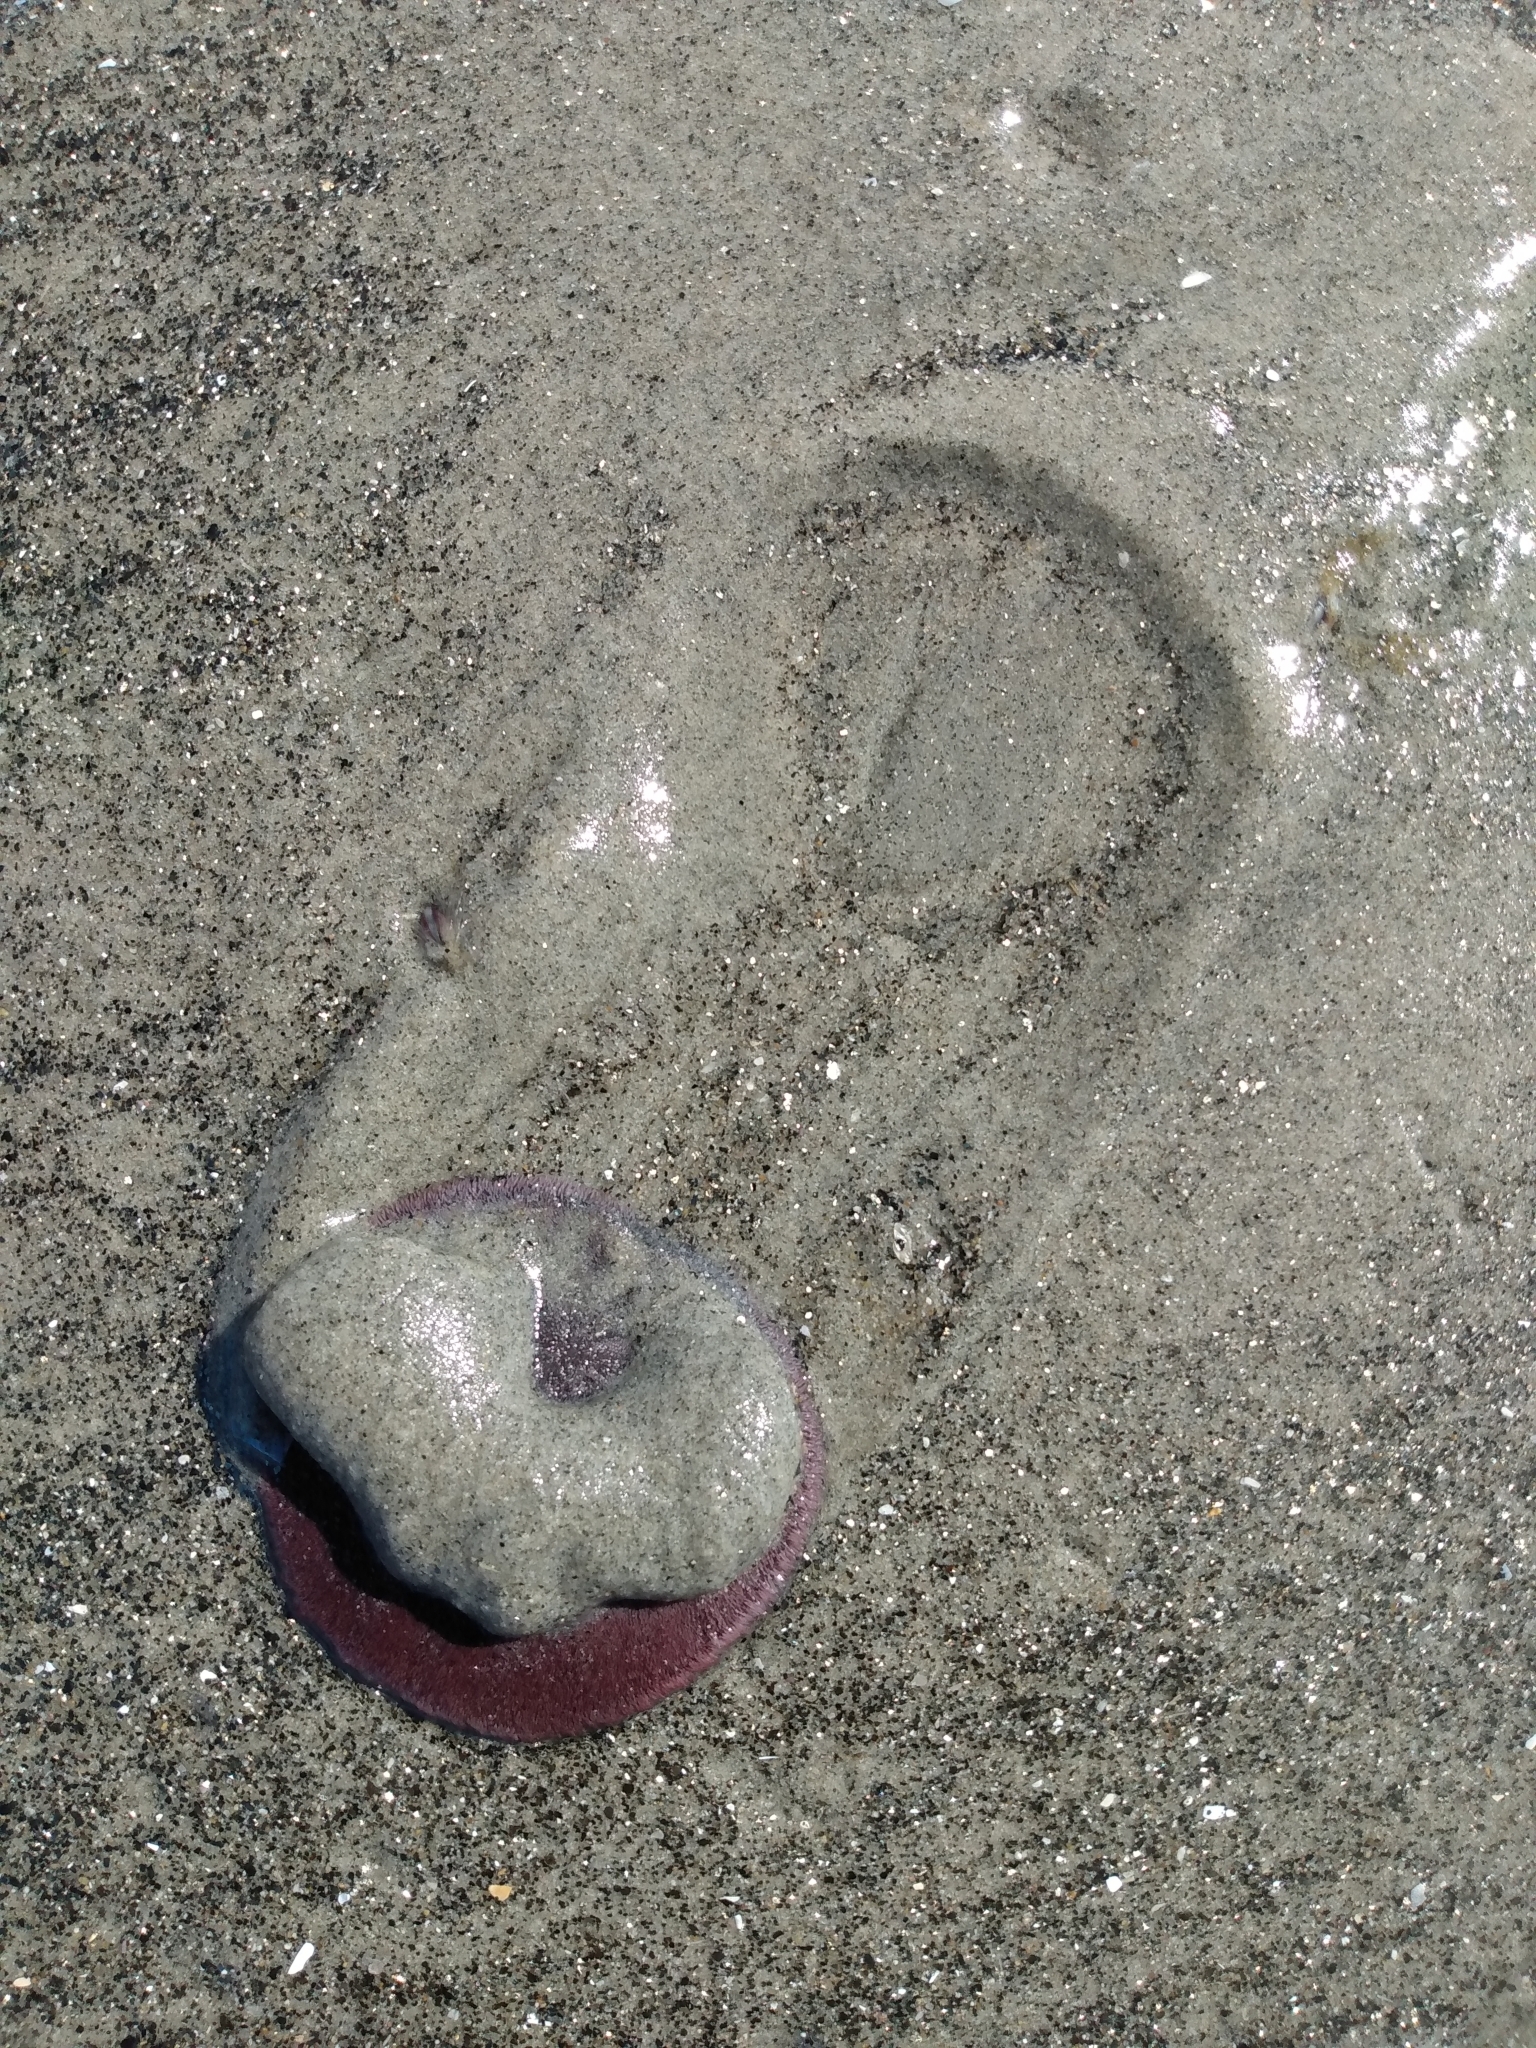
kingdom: Animalia
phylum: Echinodermata
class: Echinoidea
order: Echinolampadacea
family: Dendrasteridae
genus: Dendraster
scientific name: Dendraster excentricus
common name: Eccentric sand dollar sea urchin
